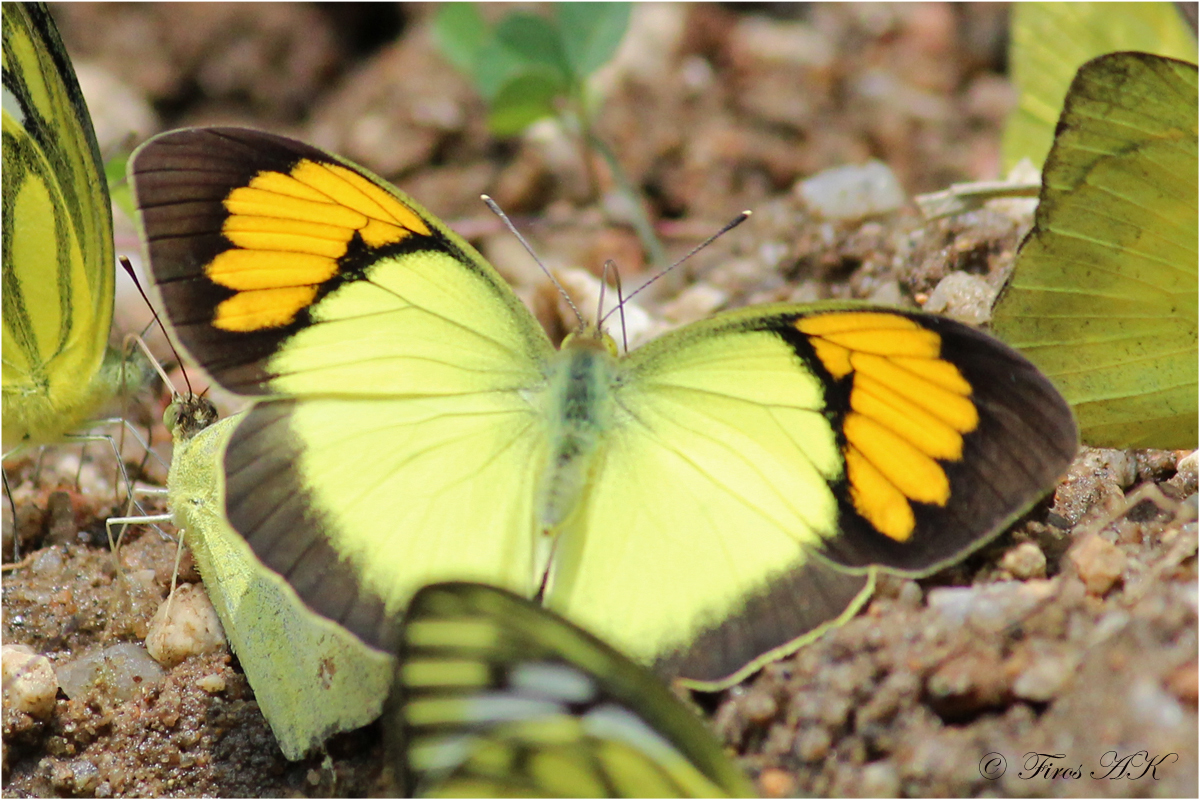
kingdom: Animalia
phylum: Arthropoda
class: Insecta
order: Lepidoptera
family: Pieridae
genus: Ixias
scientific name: Ixias pyrene
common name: Yellow orange tip
